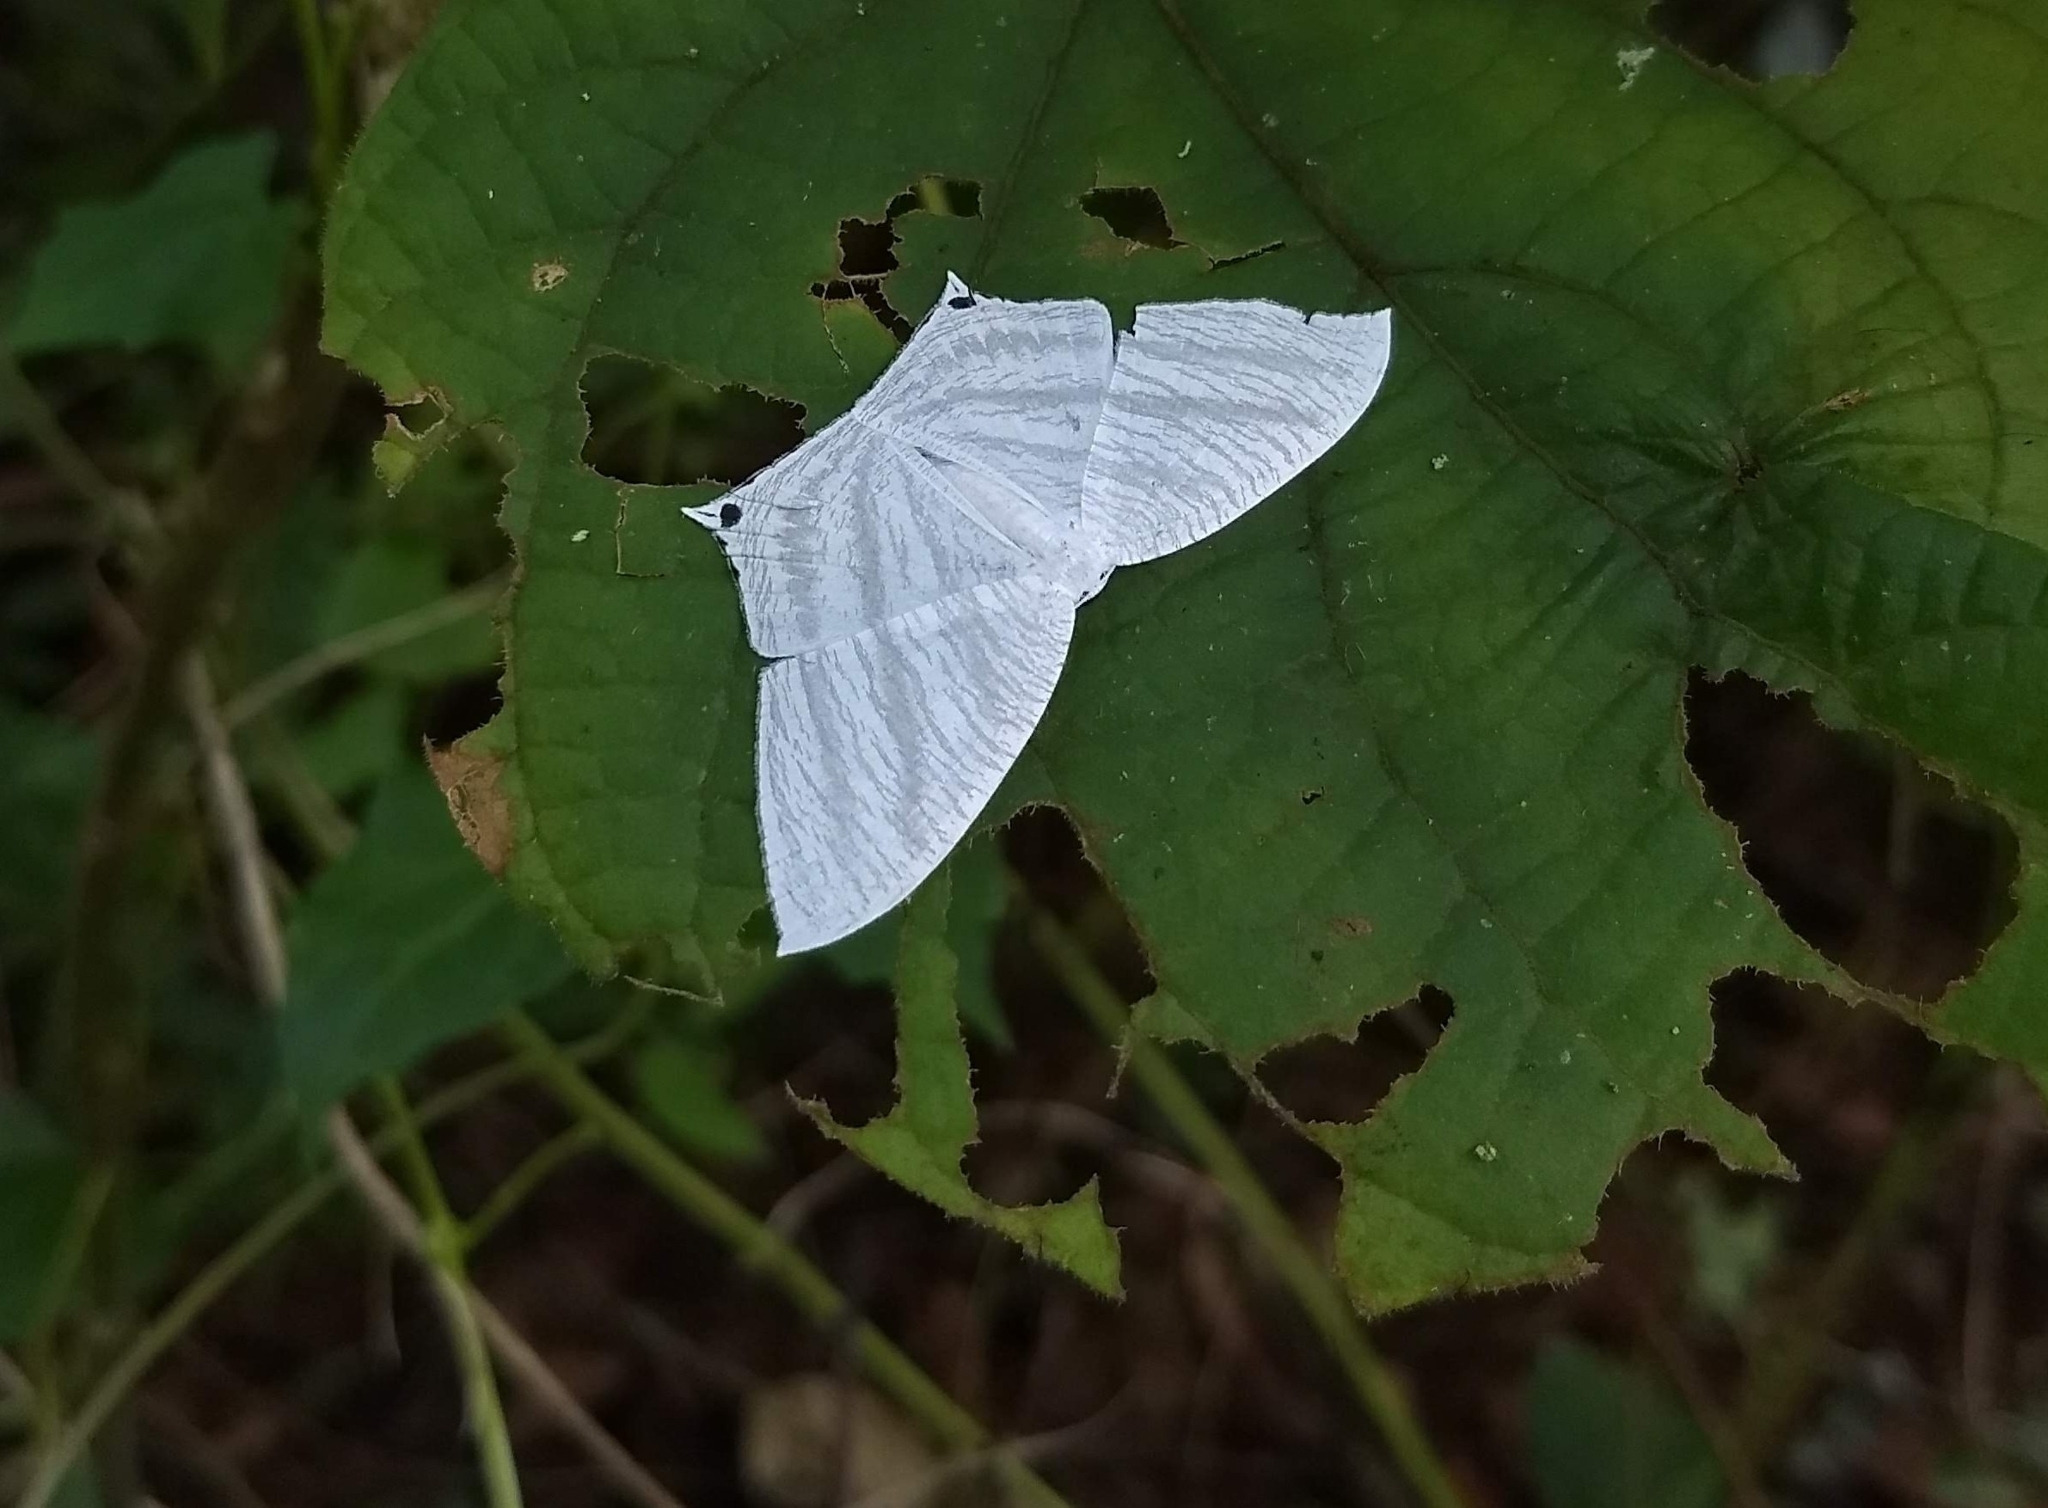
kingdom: Animalia
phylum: Arthropoda
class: Insecta
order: Lepidoptera
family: Uraniidae
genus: Micronia
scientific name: Micronia aculeata
